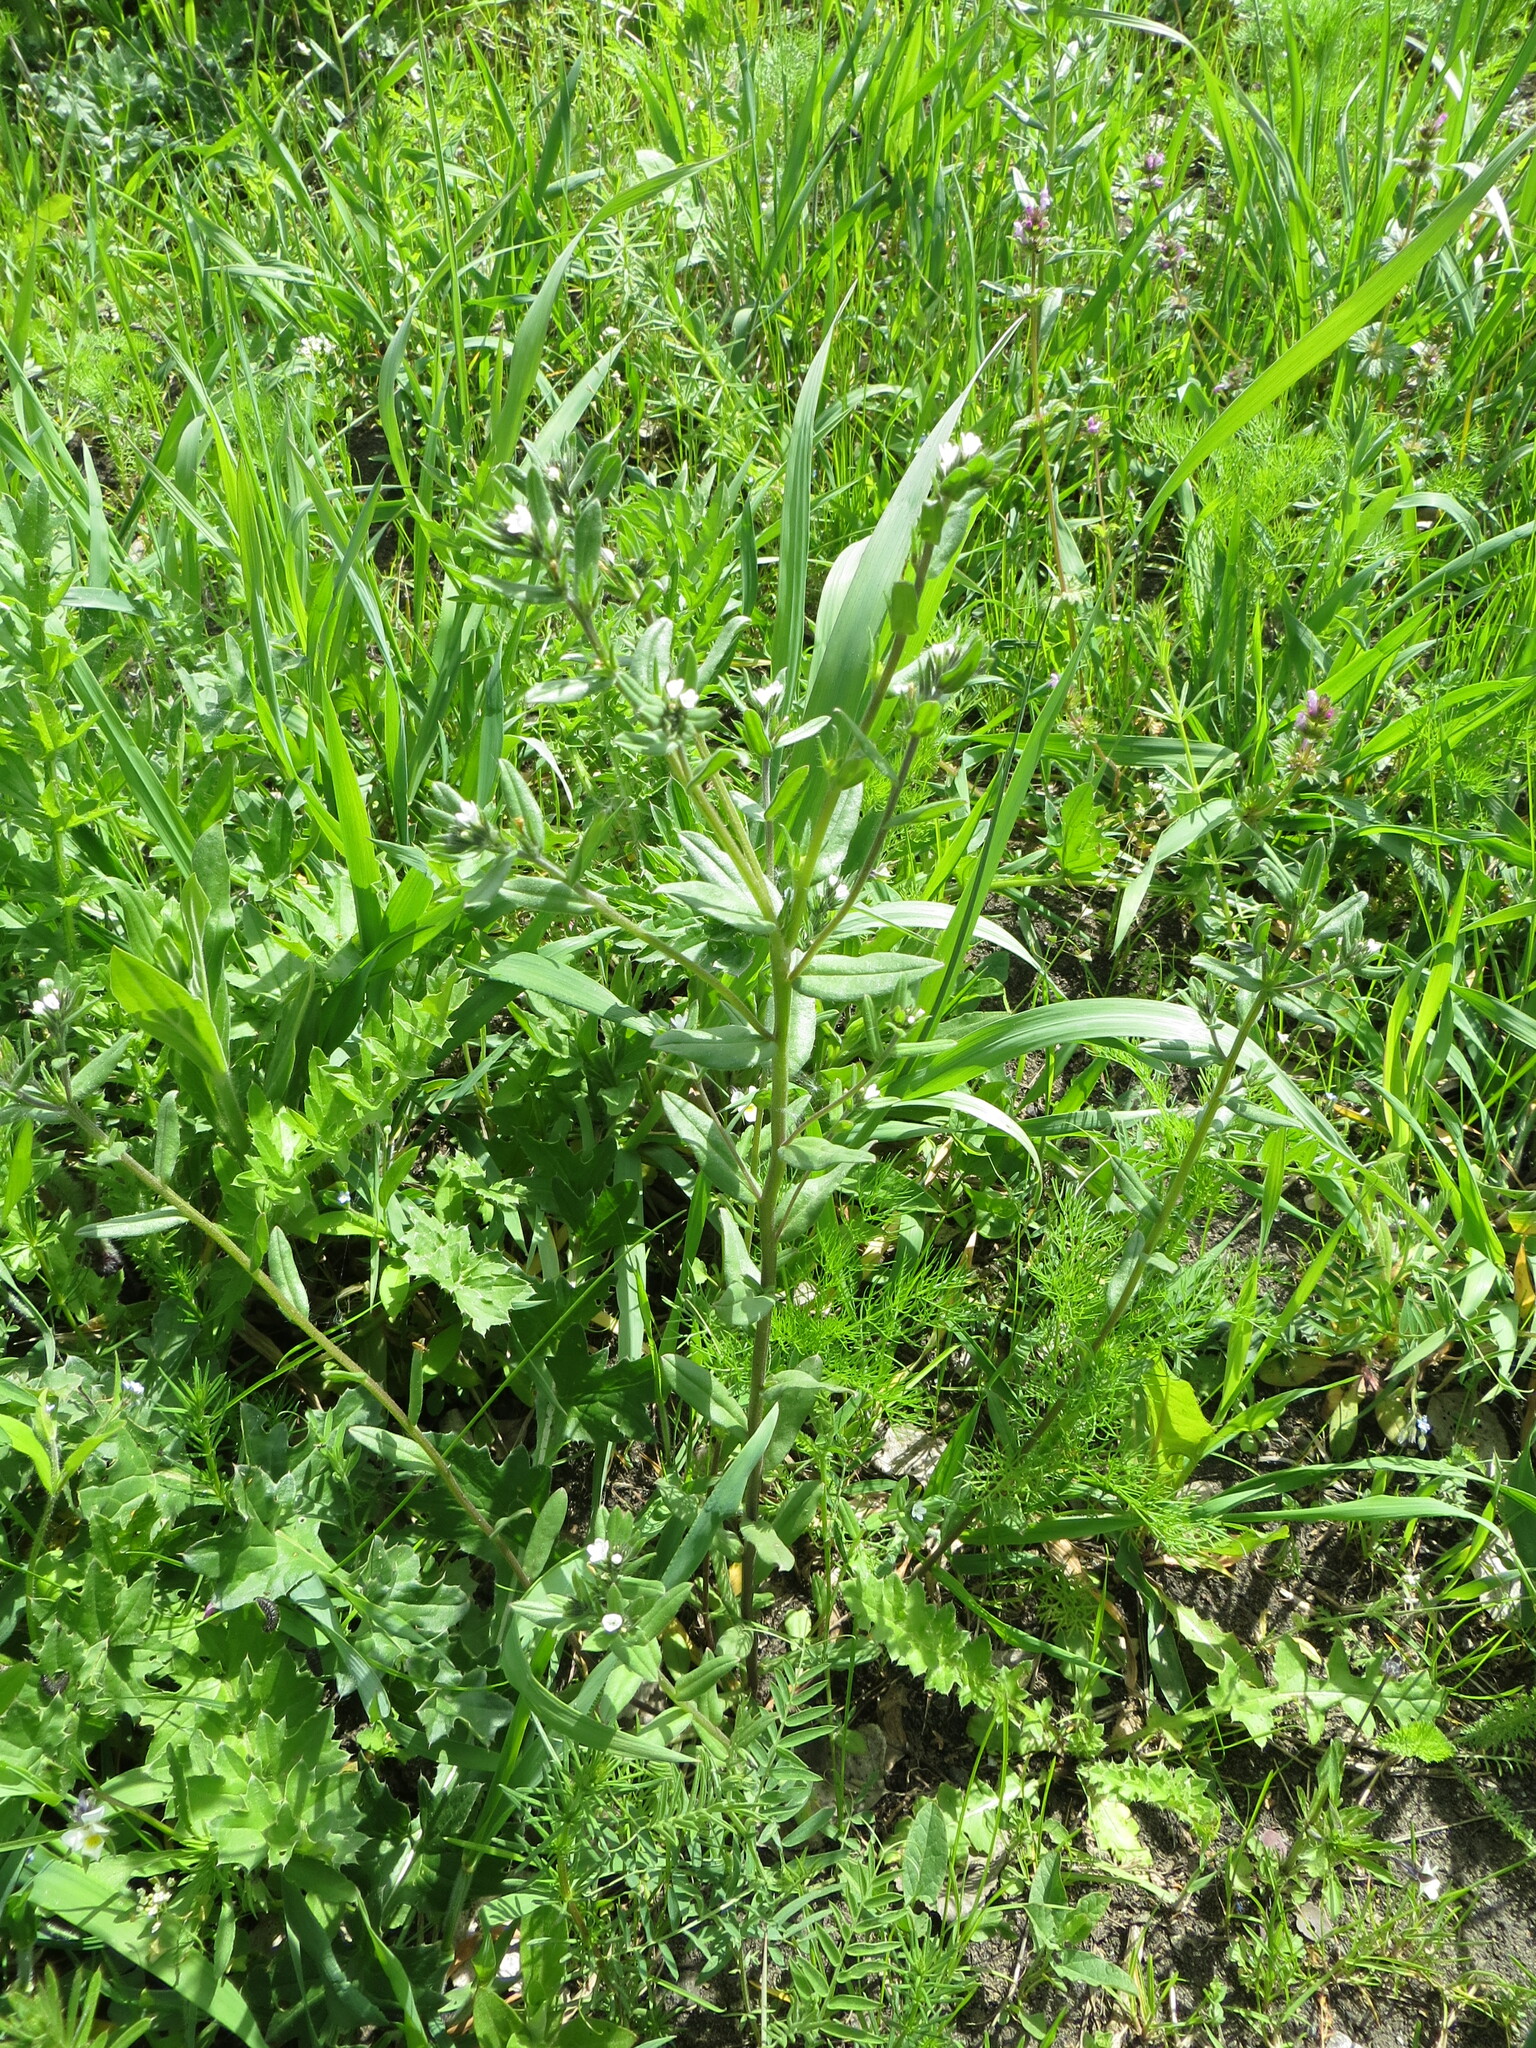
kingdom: Plantae
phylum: Tracheophyta
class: Magnoliopsida
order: Boraginales
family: Boraginaceae
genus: Buglossoides
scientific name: Buglossoides arvensis
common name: Corn gromwell
